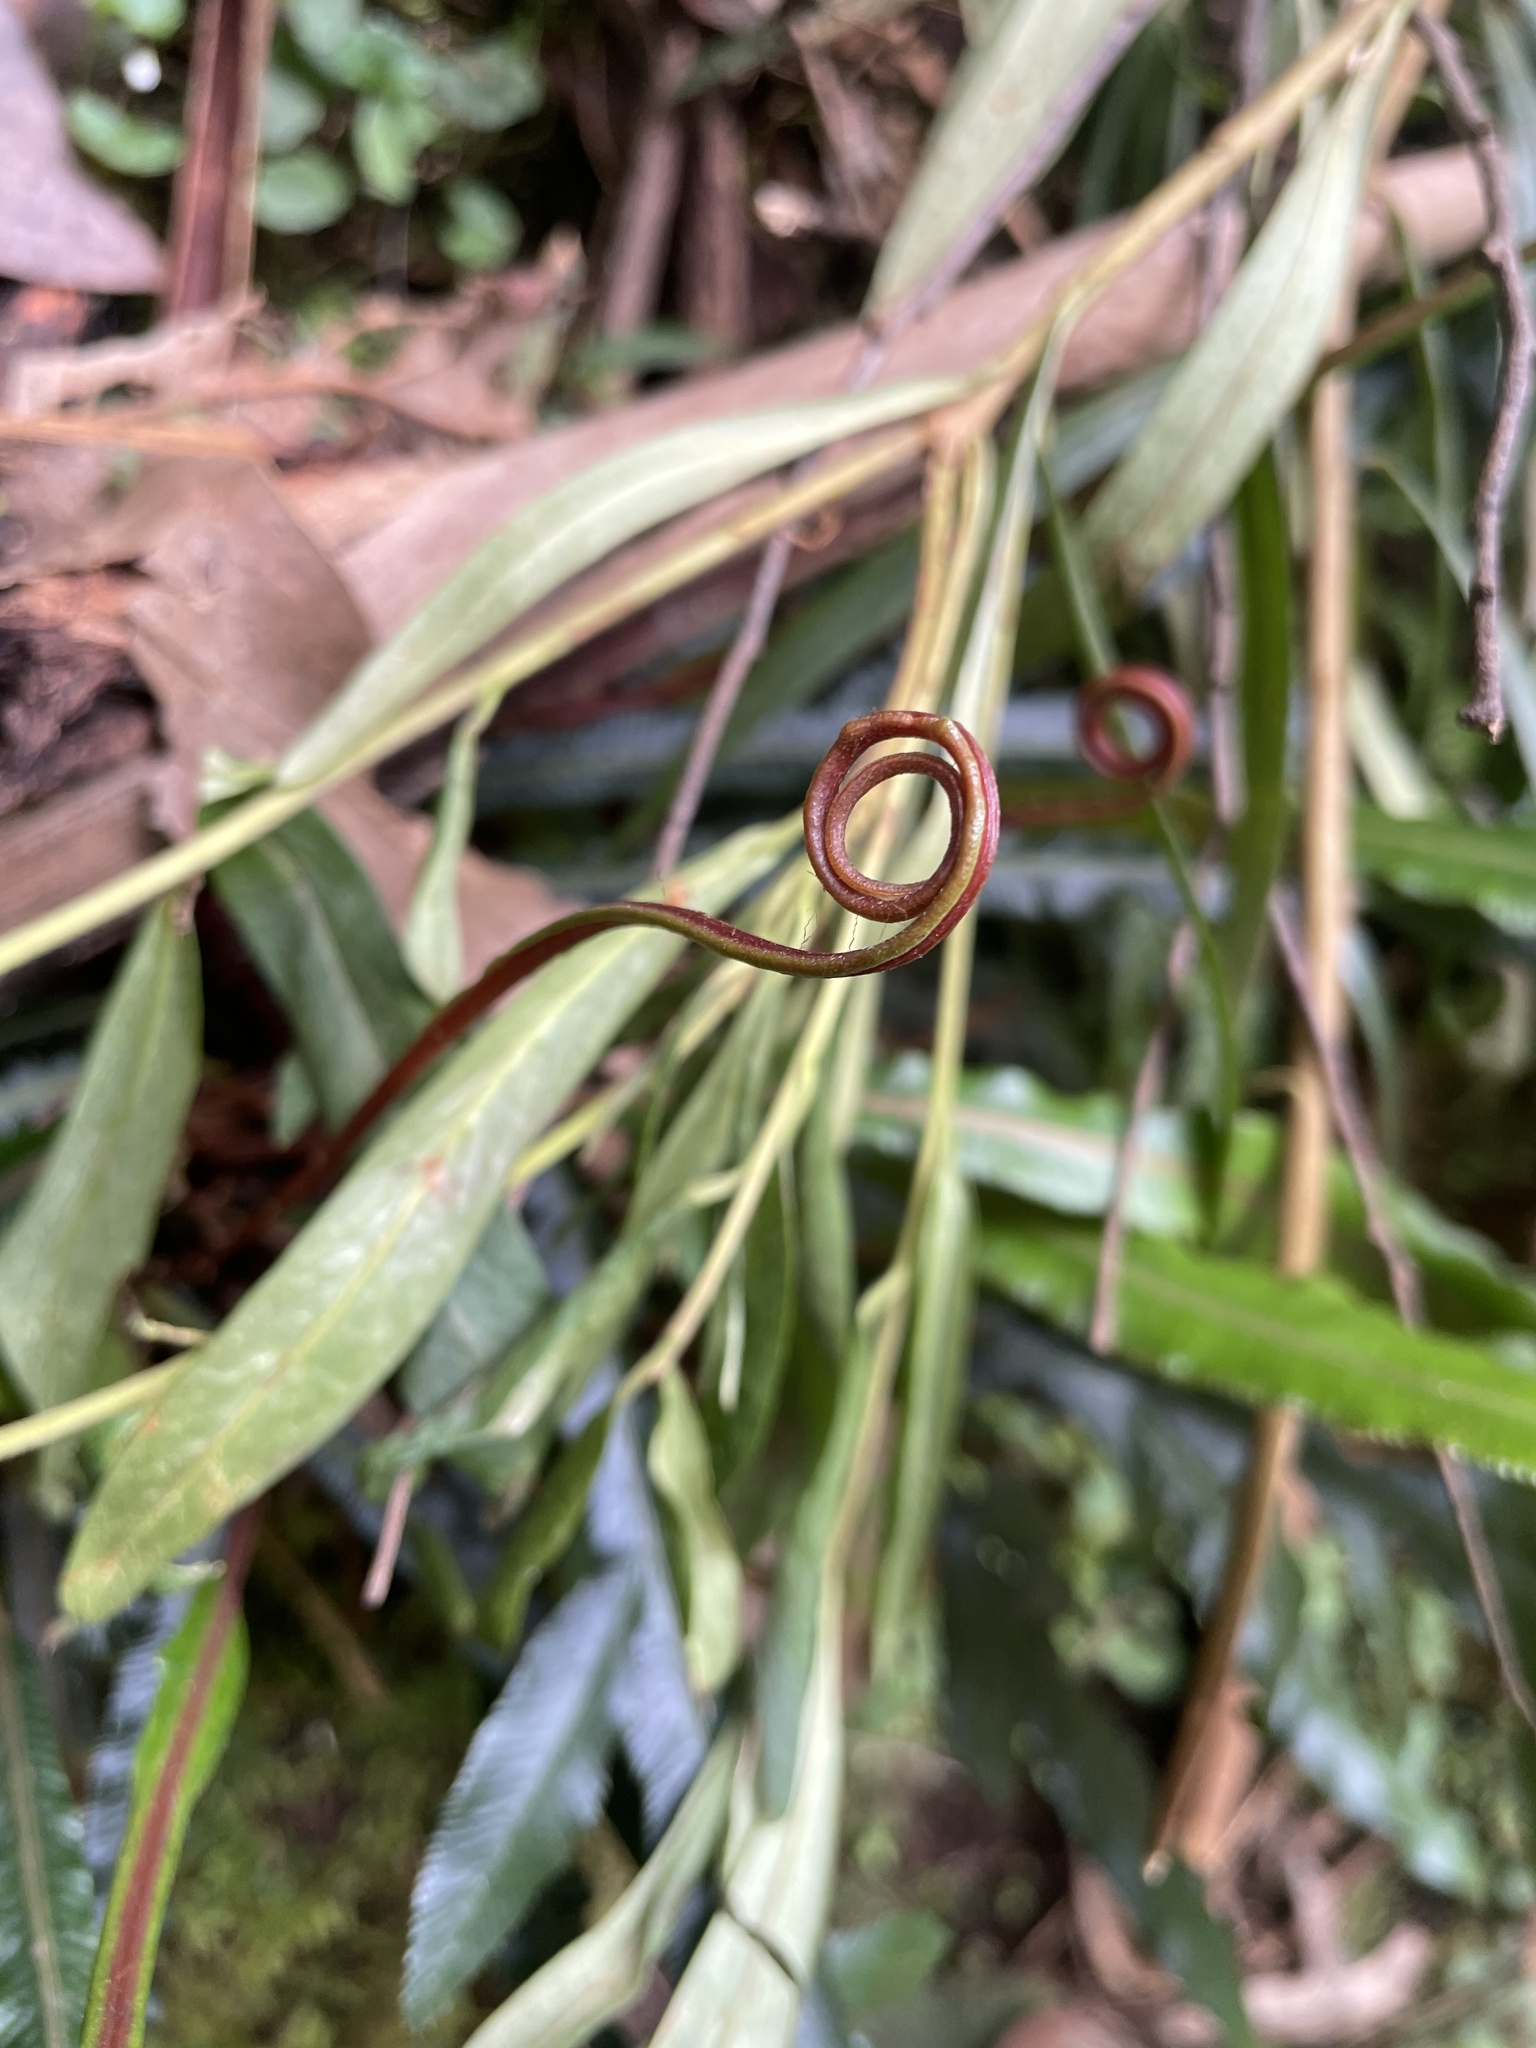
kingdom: Plantae
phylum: Tracheophyta
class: Polypodiopsida
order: Polypodiales
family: Blechnaceae
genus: Austroblechnum
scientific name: Austroblechnum patersonii
